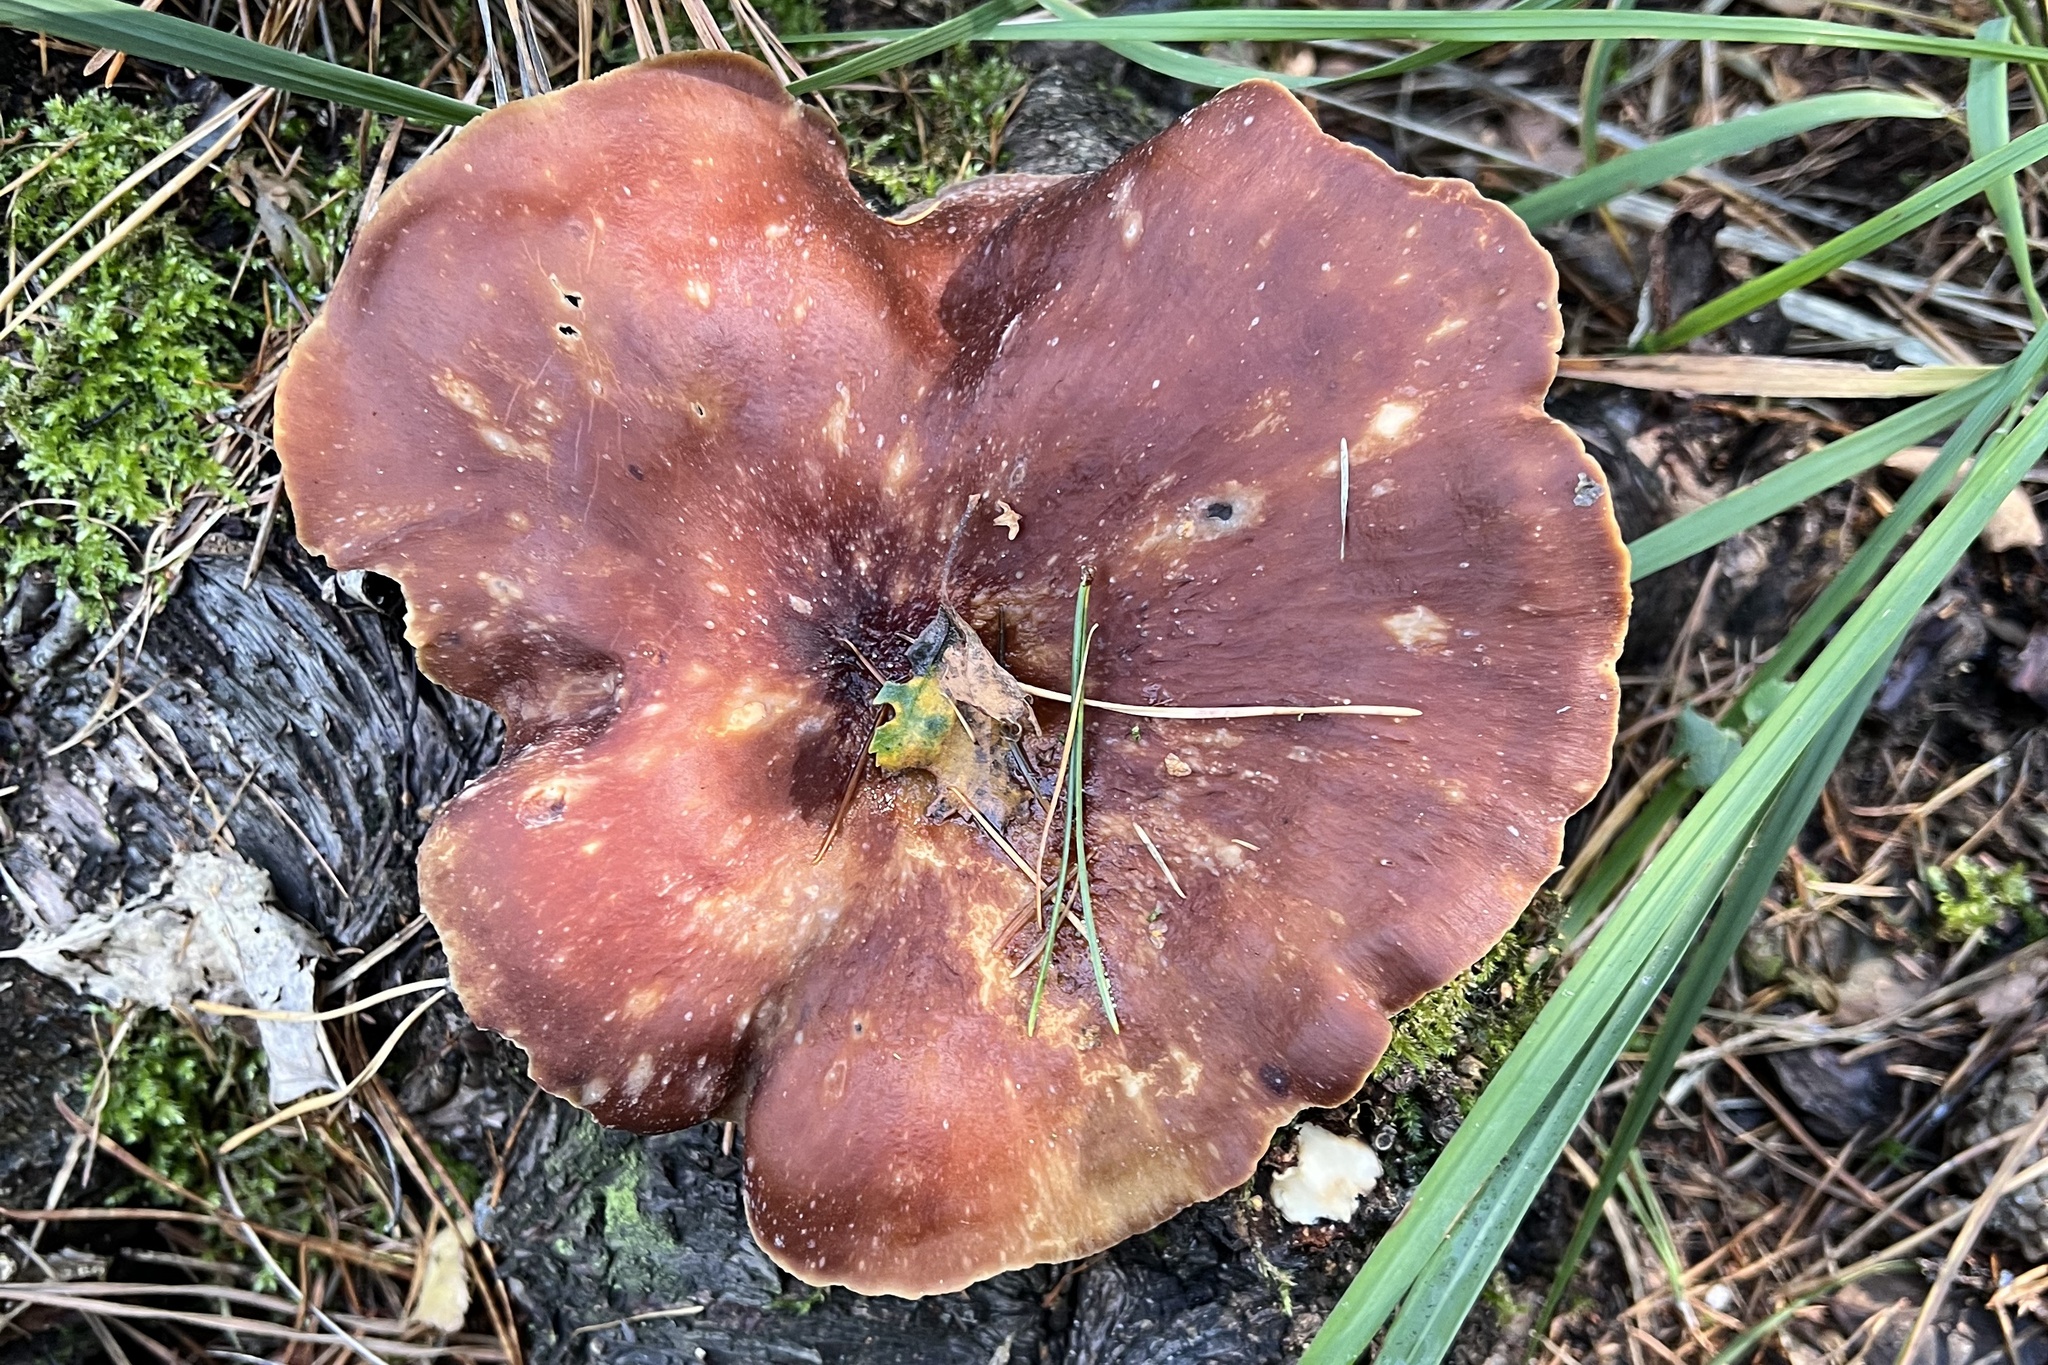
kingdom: Fungi
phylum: Basidiomycota
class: Agaricomycetes
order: Polyporales
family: Polyporaceae
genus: Picipes
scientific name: Picipes badius
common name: Bay polypore
